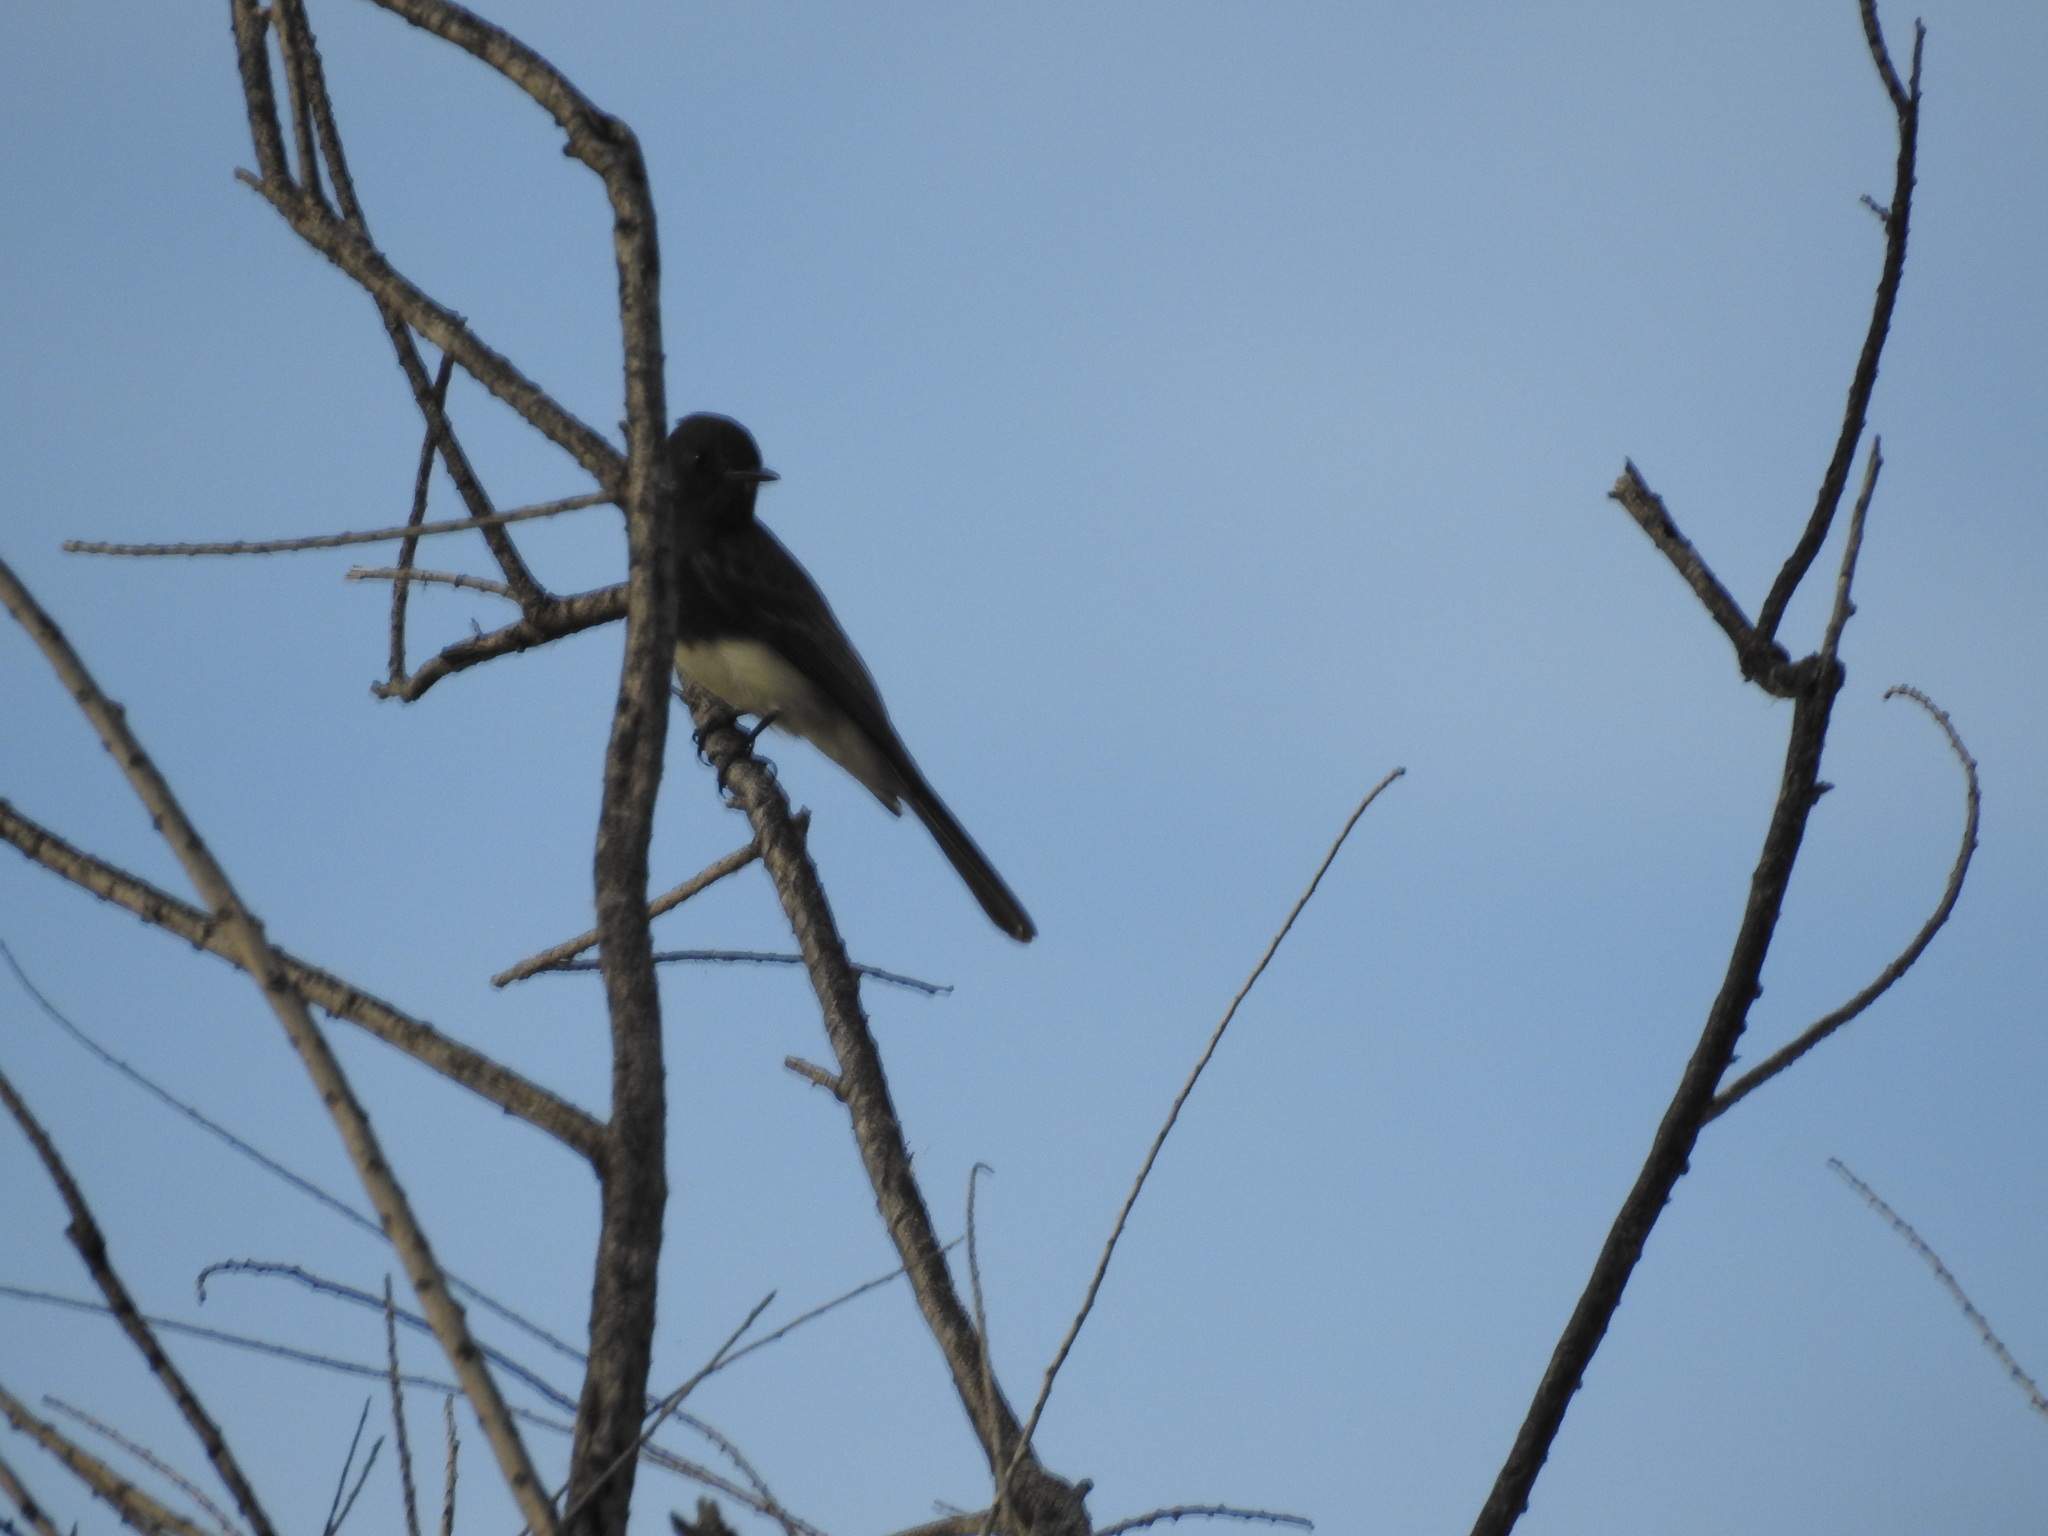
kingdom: Animalia
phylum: Chordata
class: Aves
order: Passeriformes
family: Tyrannidae
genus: Sayornis
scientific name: Sayornis nigricans
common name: Black phoebe
